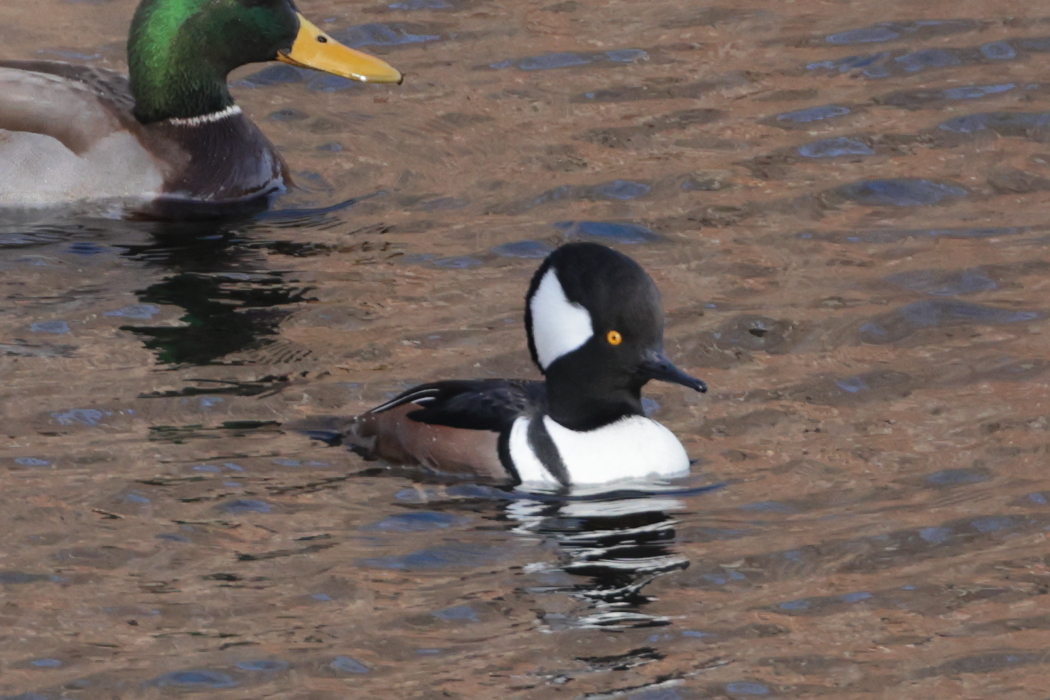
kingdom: Animalia
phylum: Chordata
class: Aves
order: Anseriformes
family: Anatidae
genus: Lophodytes
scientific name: Lophodytes cucullatus
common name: Hooded merganser
